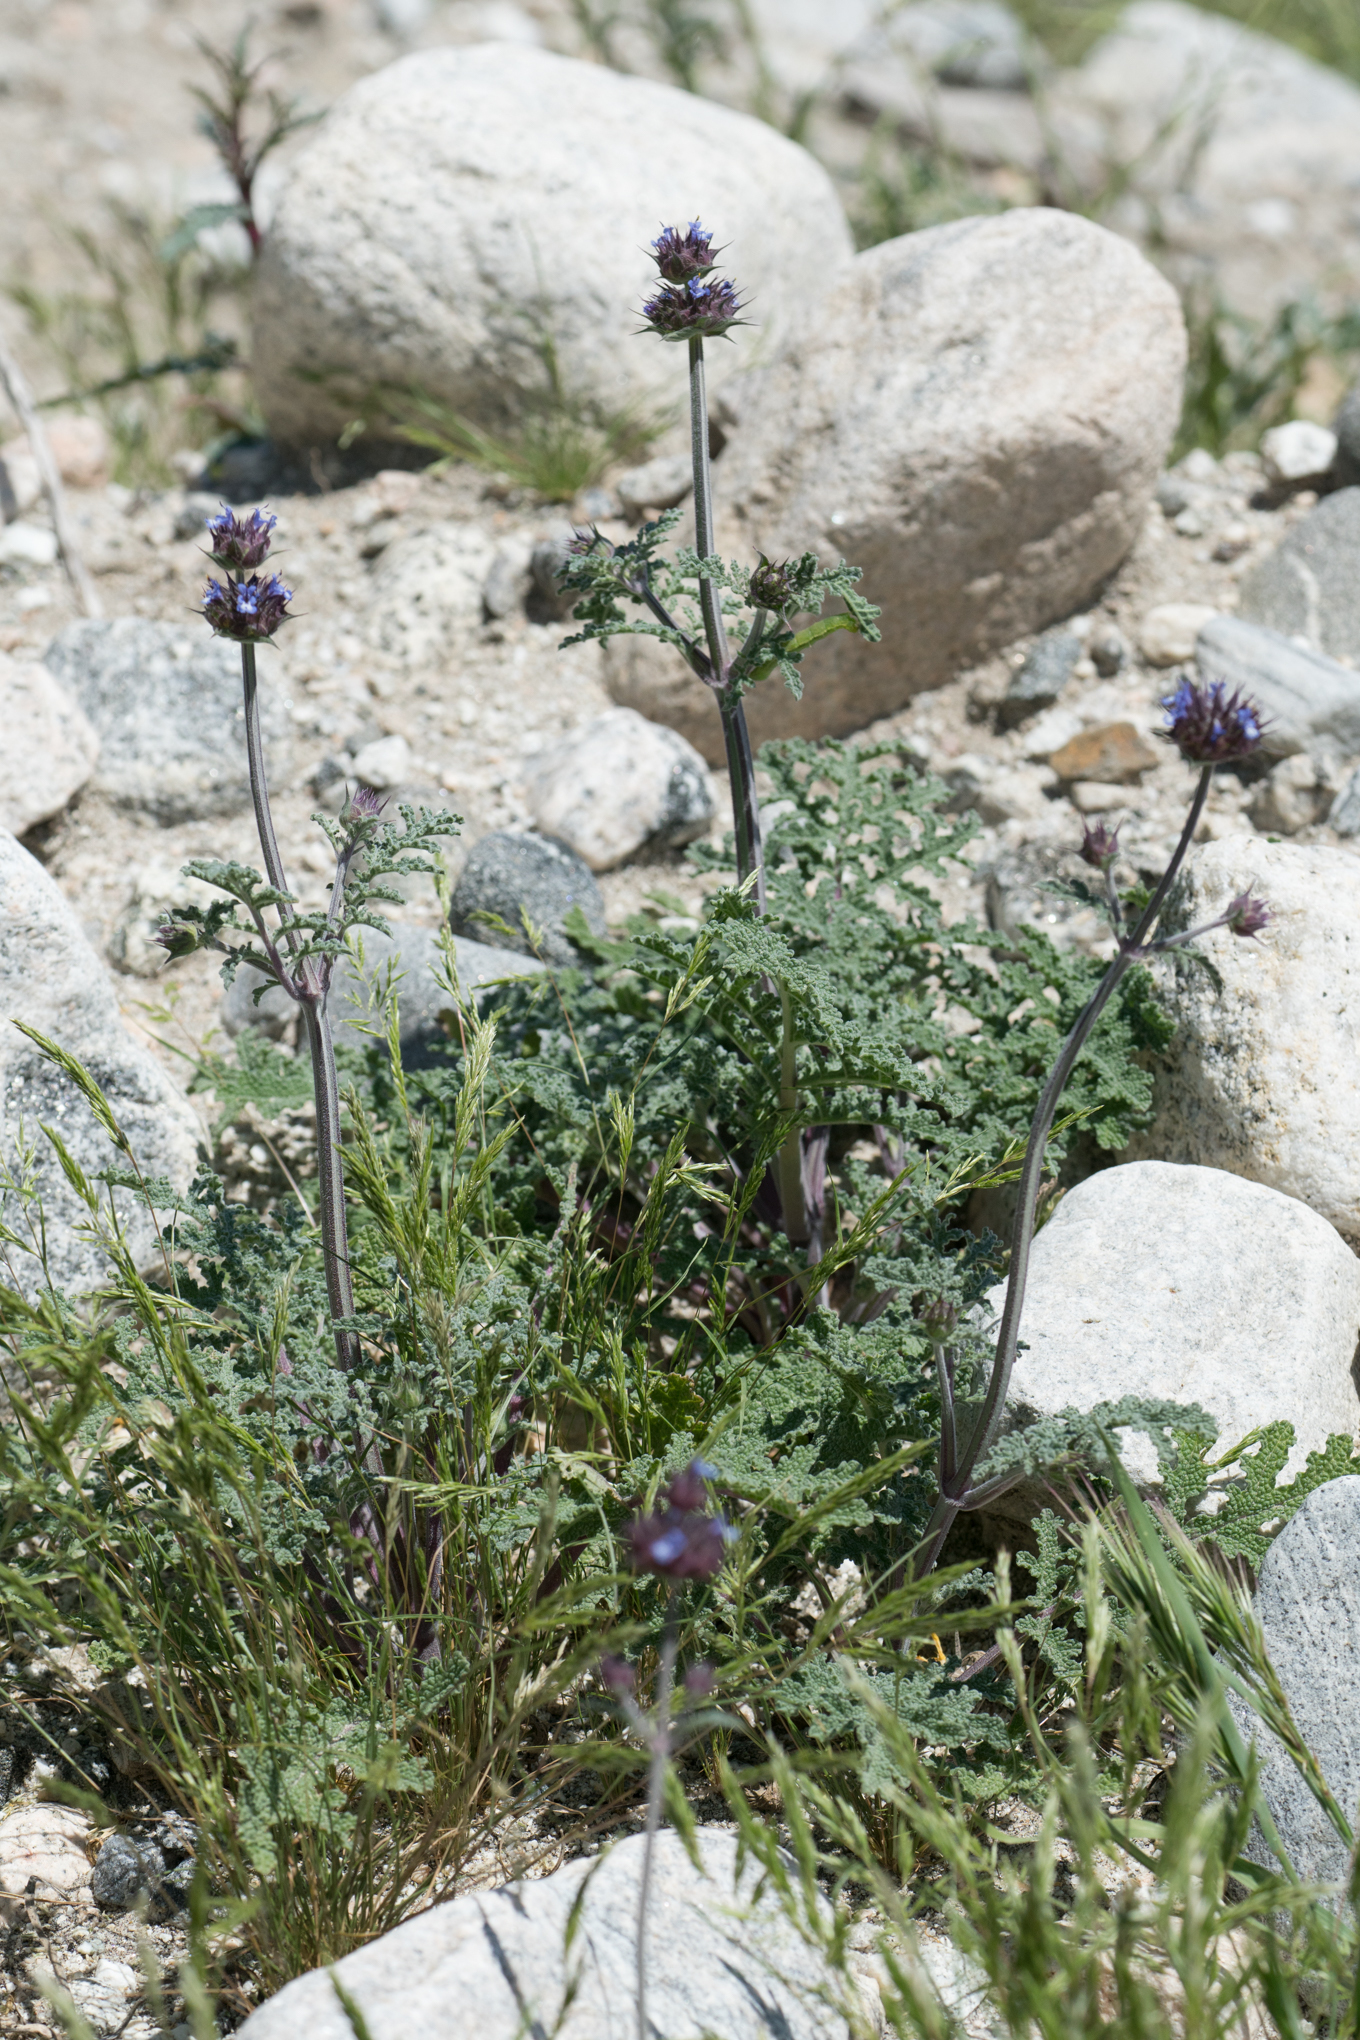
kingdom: Plantae
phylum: Tracheophyta
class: Magnoliopsida
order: Lamiales
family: Lamiaceae
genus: Salvia
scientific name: Salvia columbariae
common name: Chia
